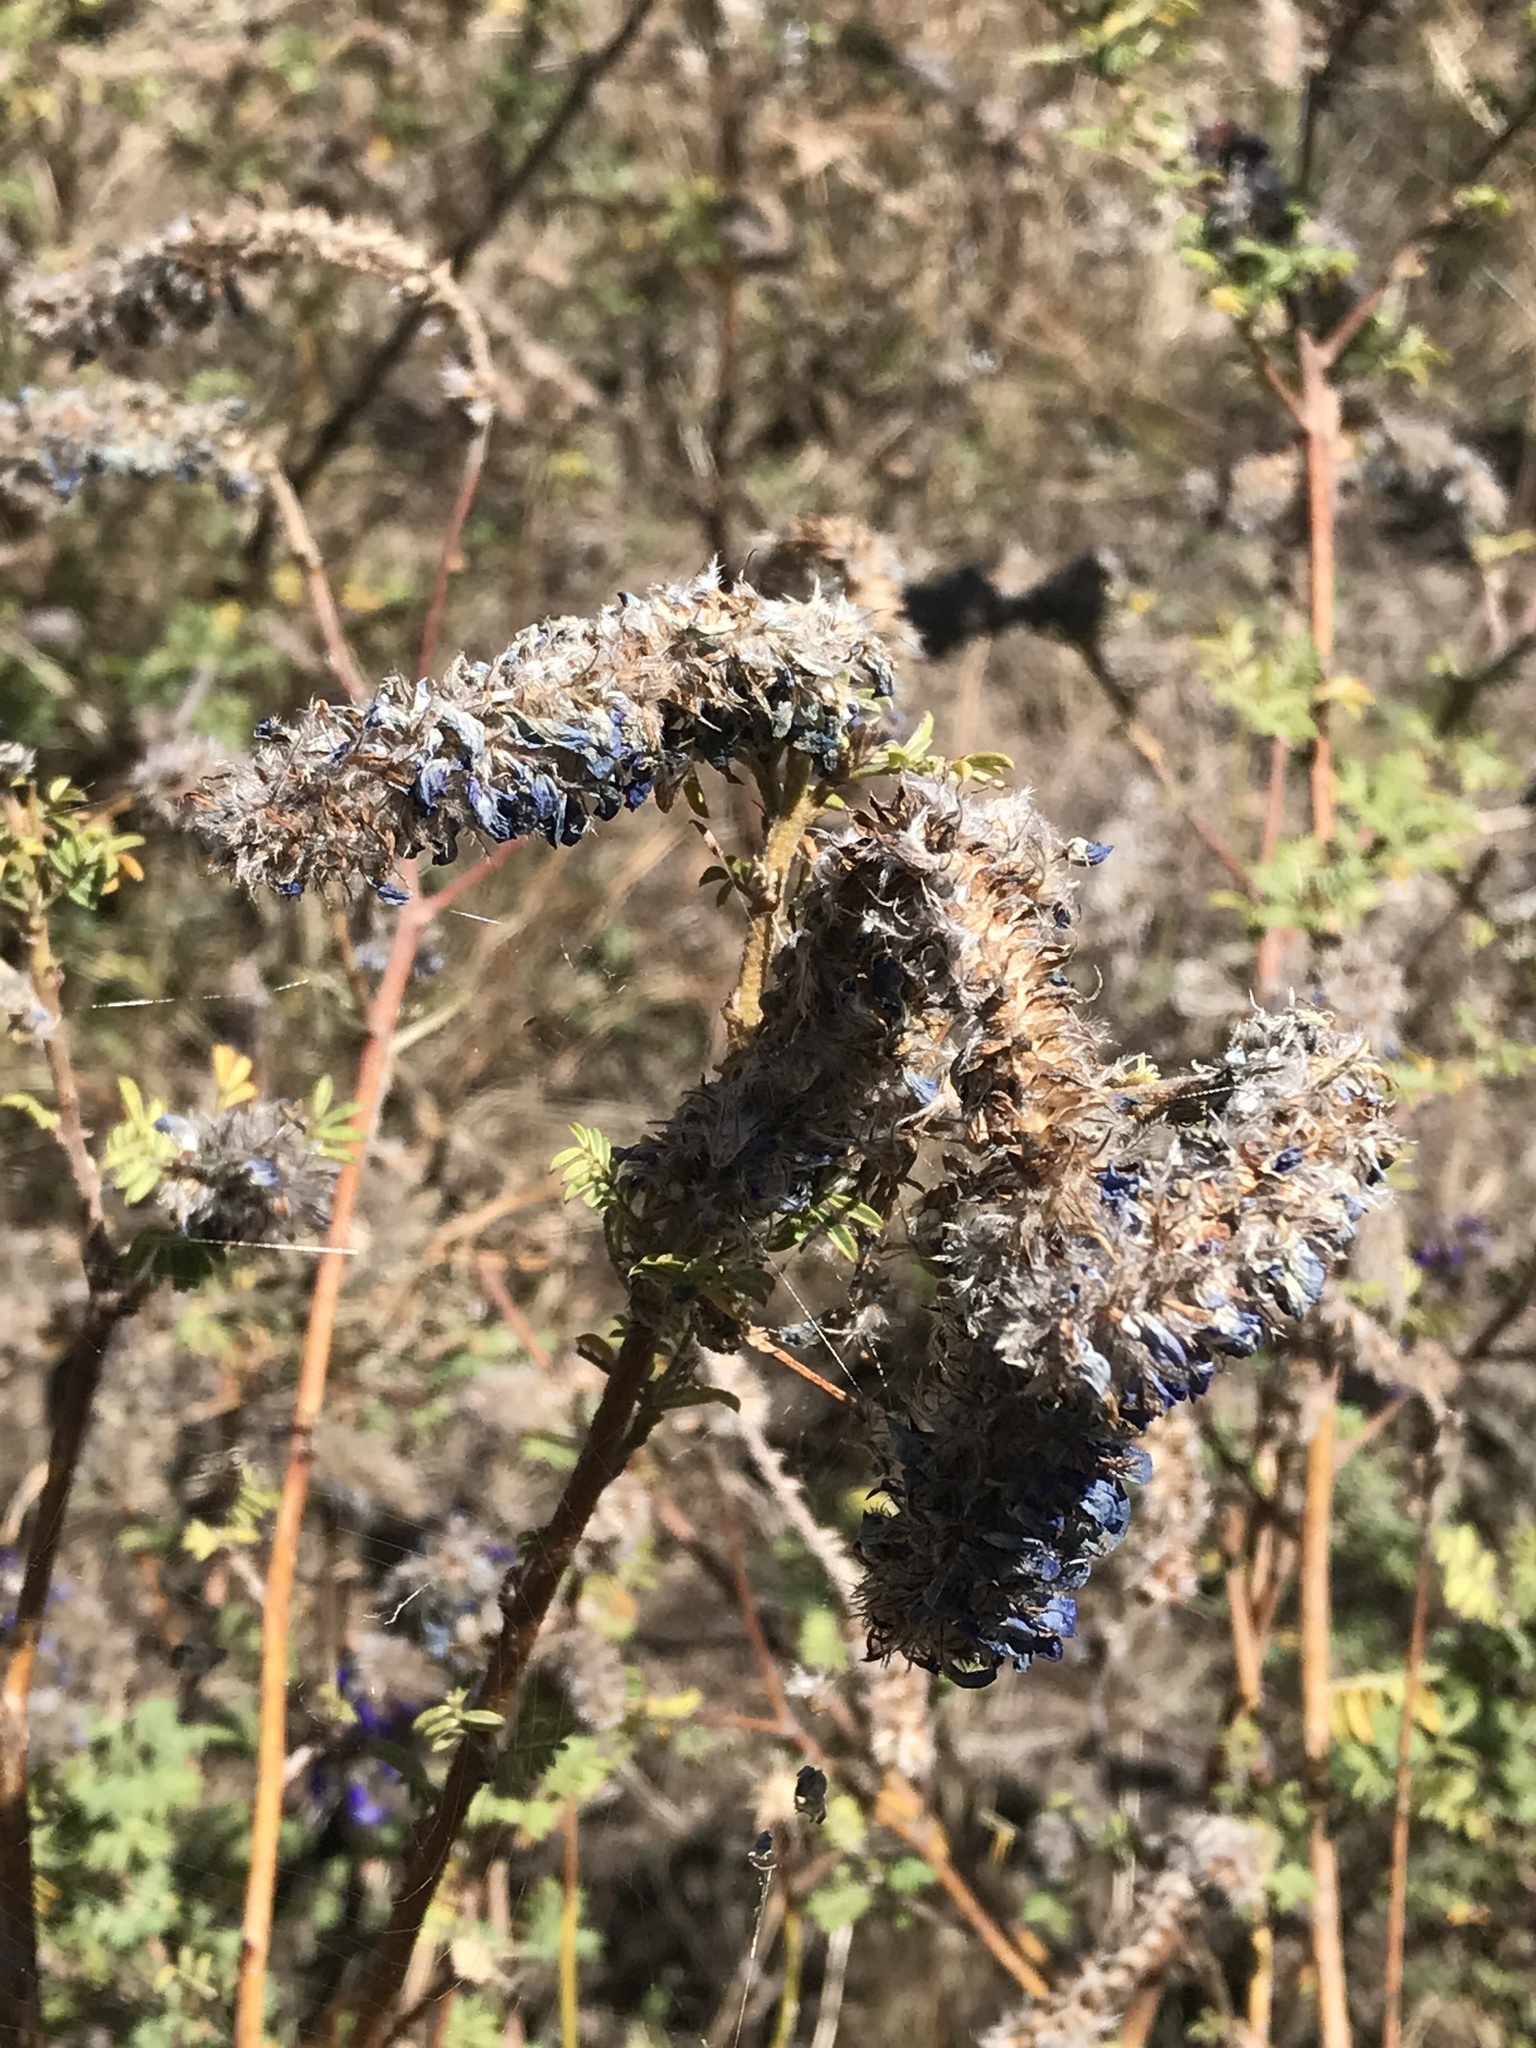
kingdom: Plantae
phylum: Tracheophyta
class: Magnoliopsida
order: Fabales
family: Fabaceae
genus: Dalea
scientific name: Dalea coerulea
